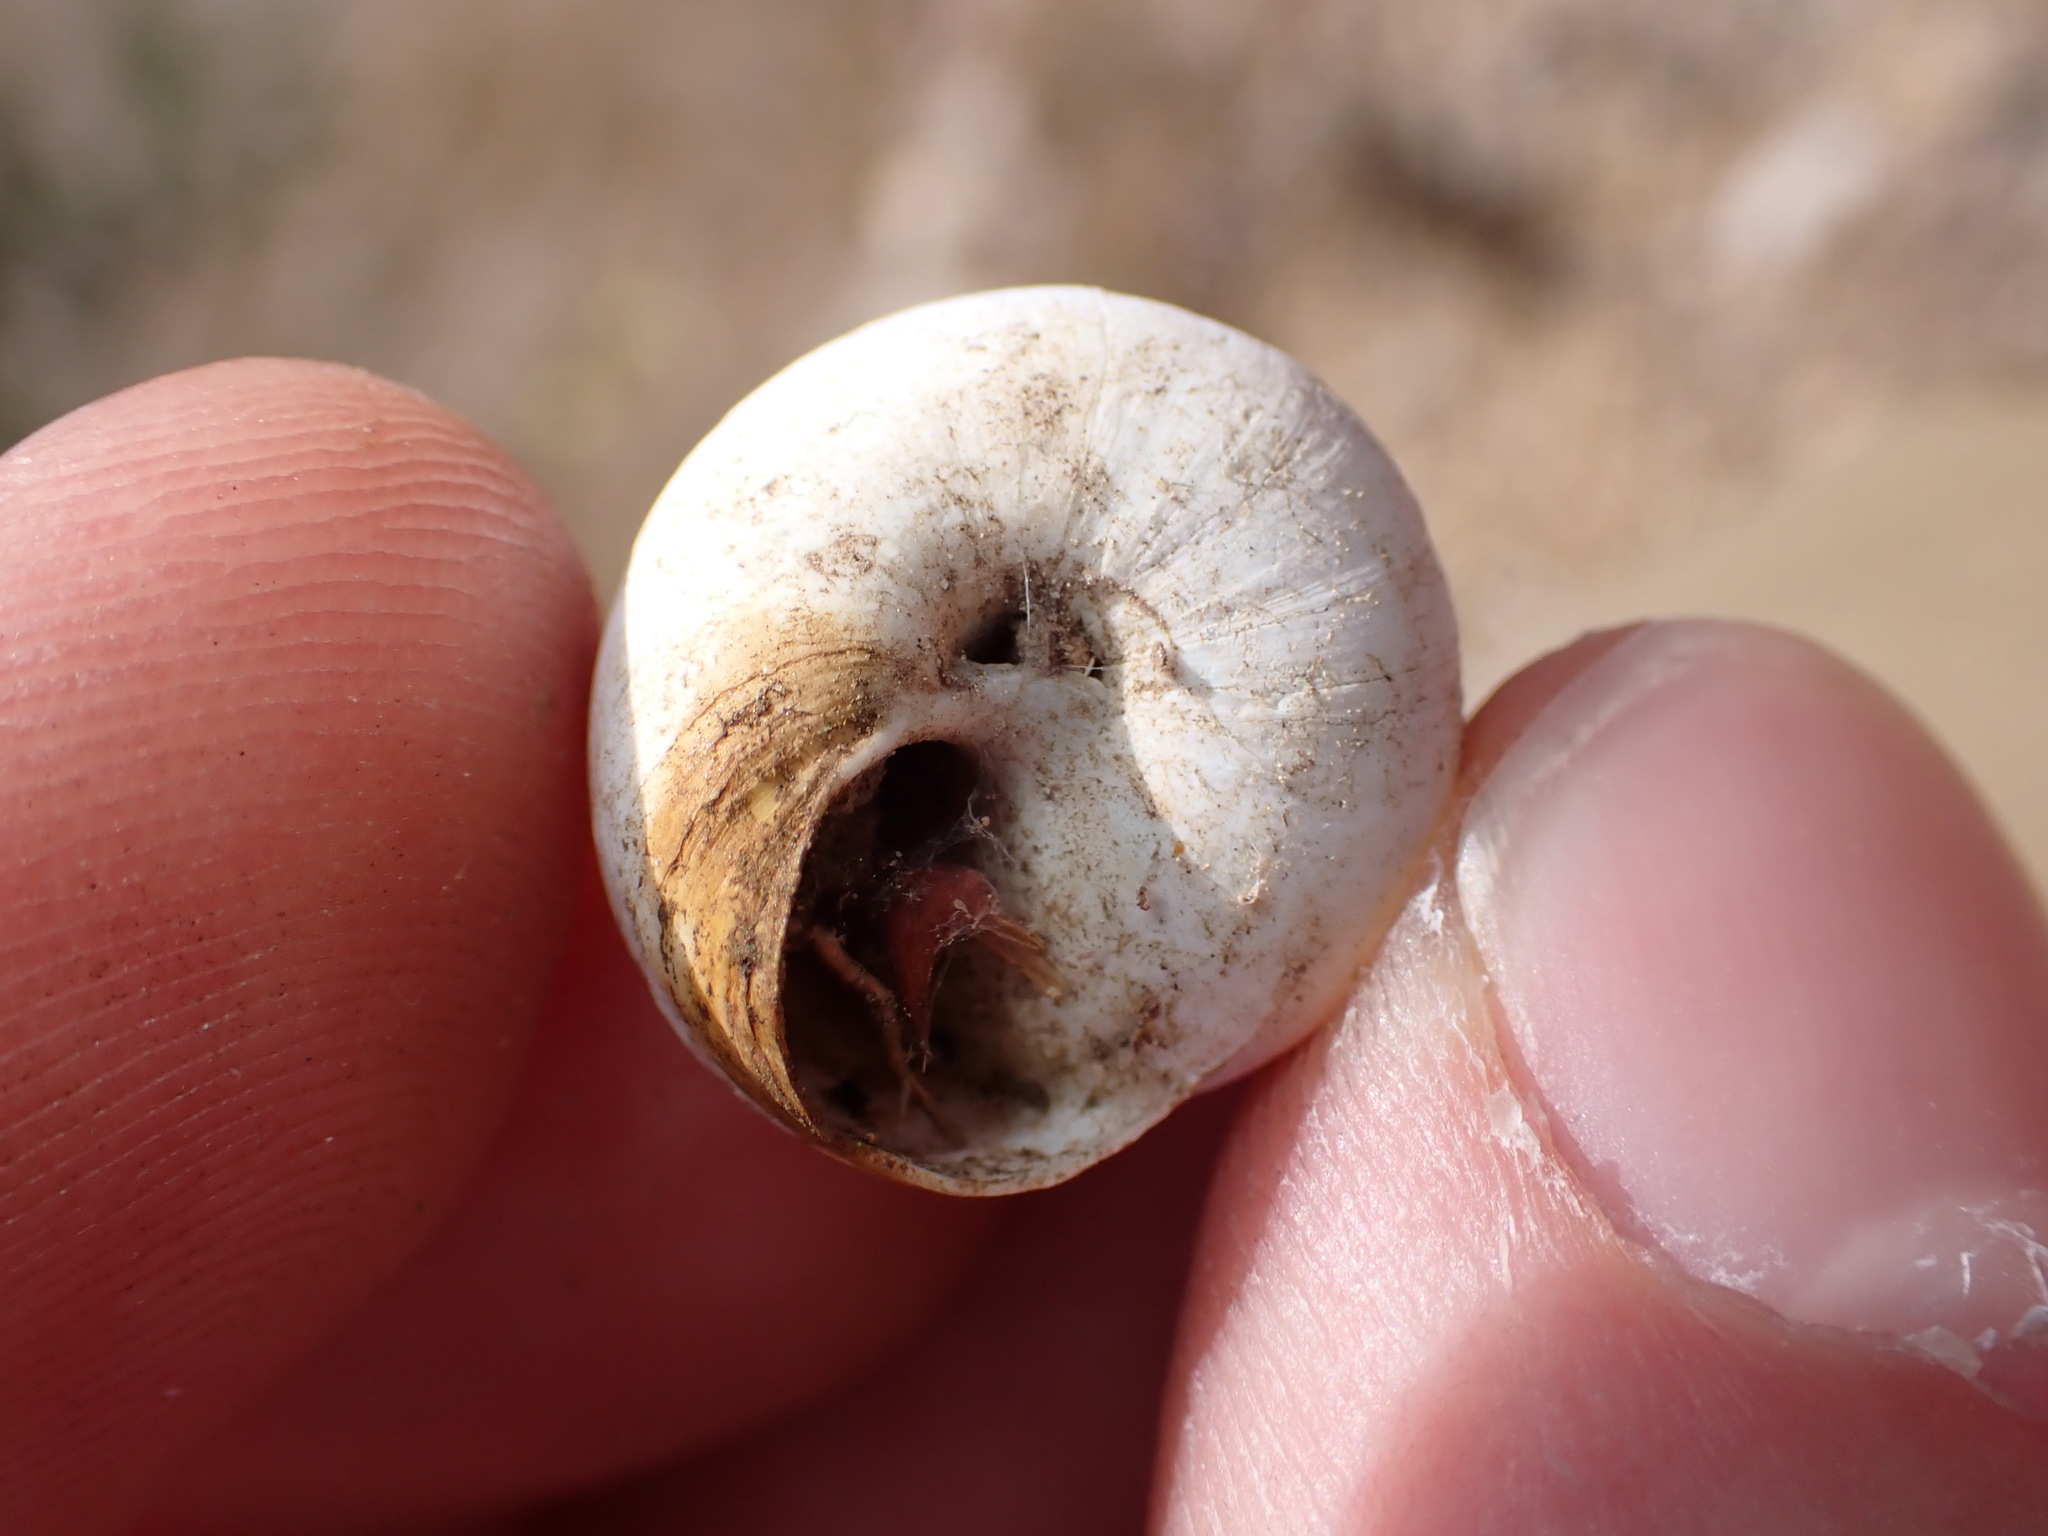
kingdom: Animalia
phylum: Mollusca
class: Gastropoda
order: Stylommatophora
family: Sphincterochilidae
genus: Sphincterochila
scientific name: Sphincterochila candidissima
